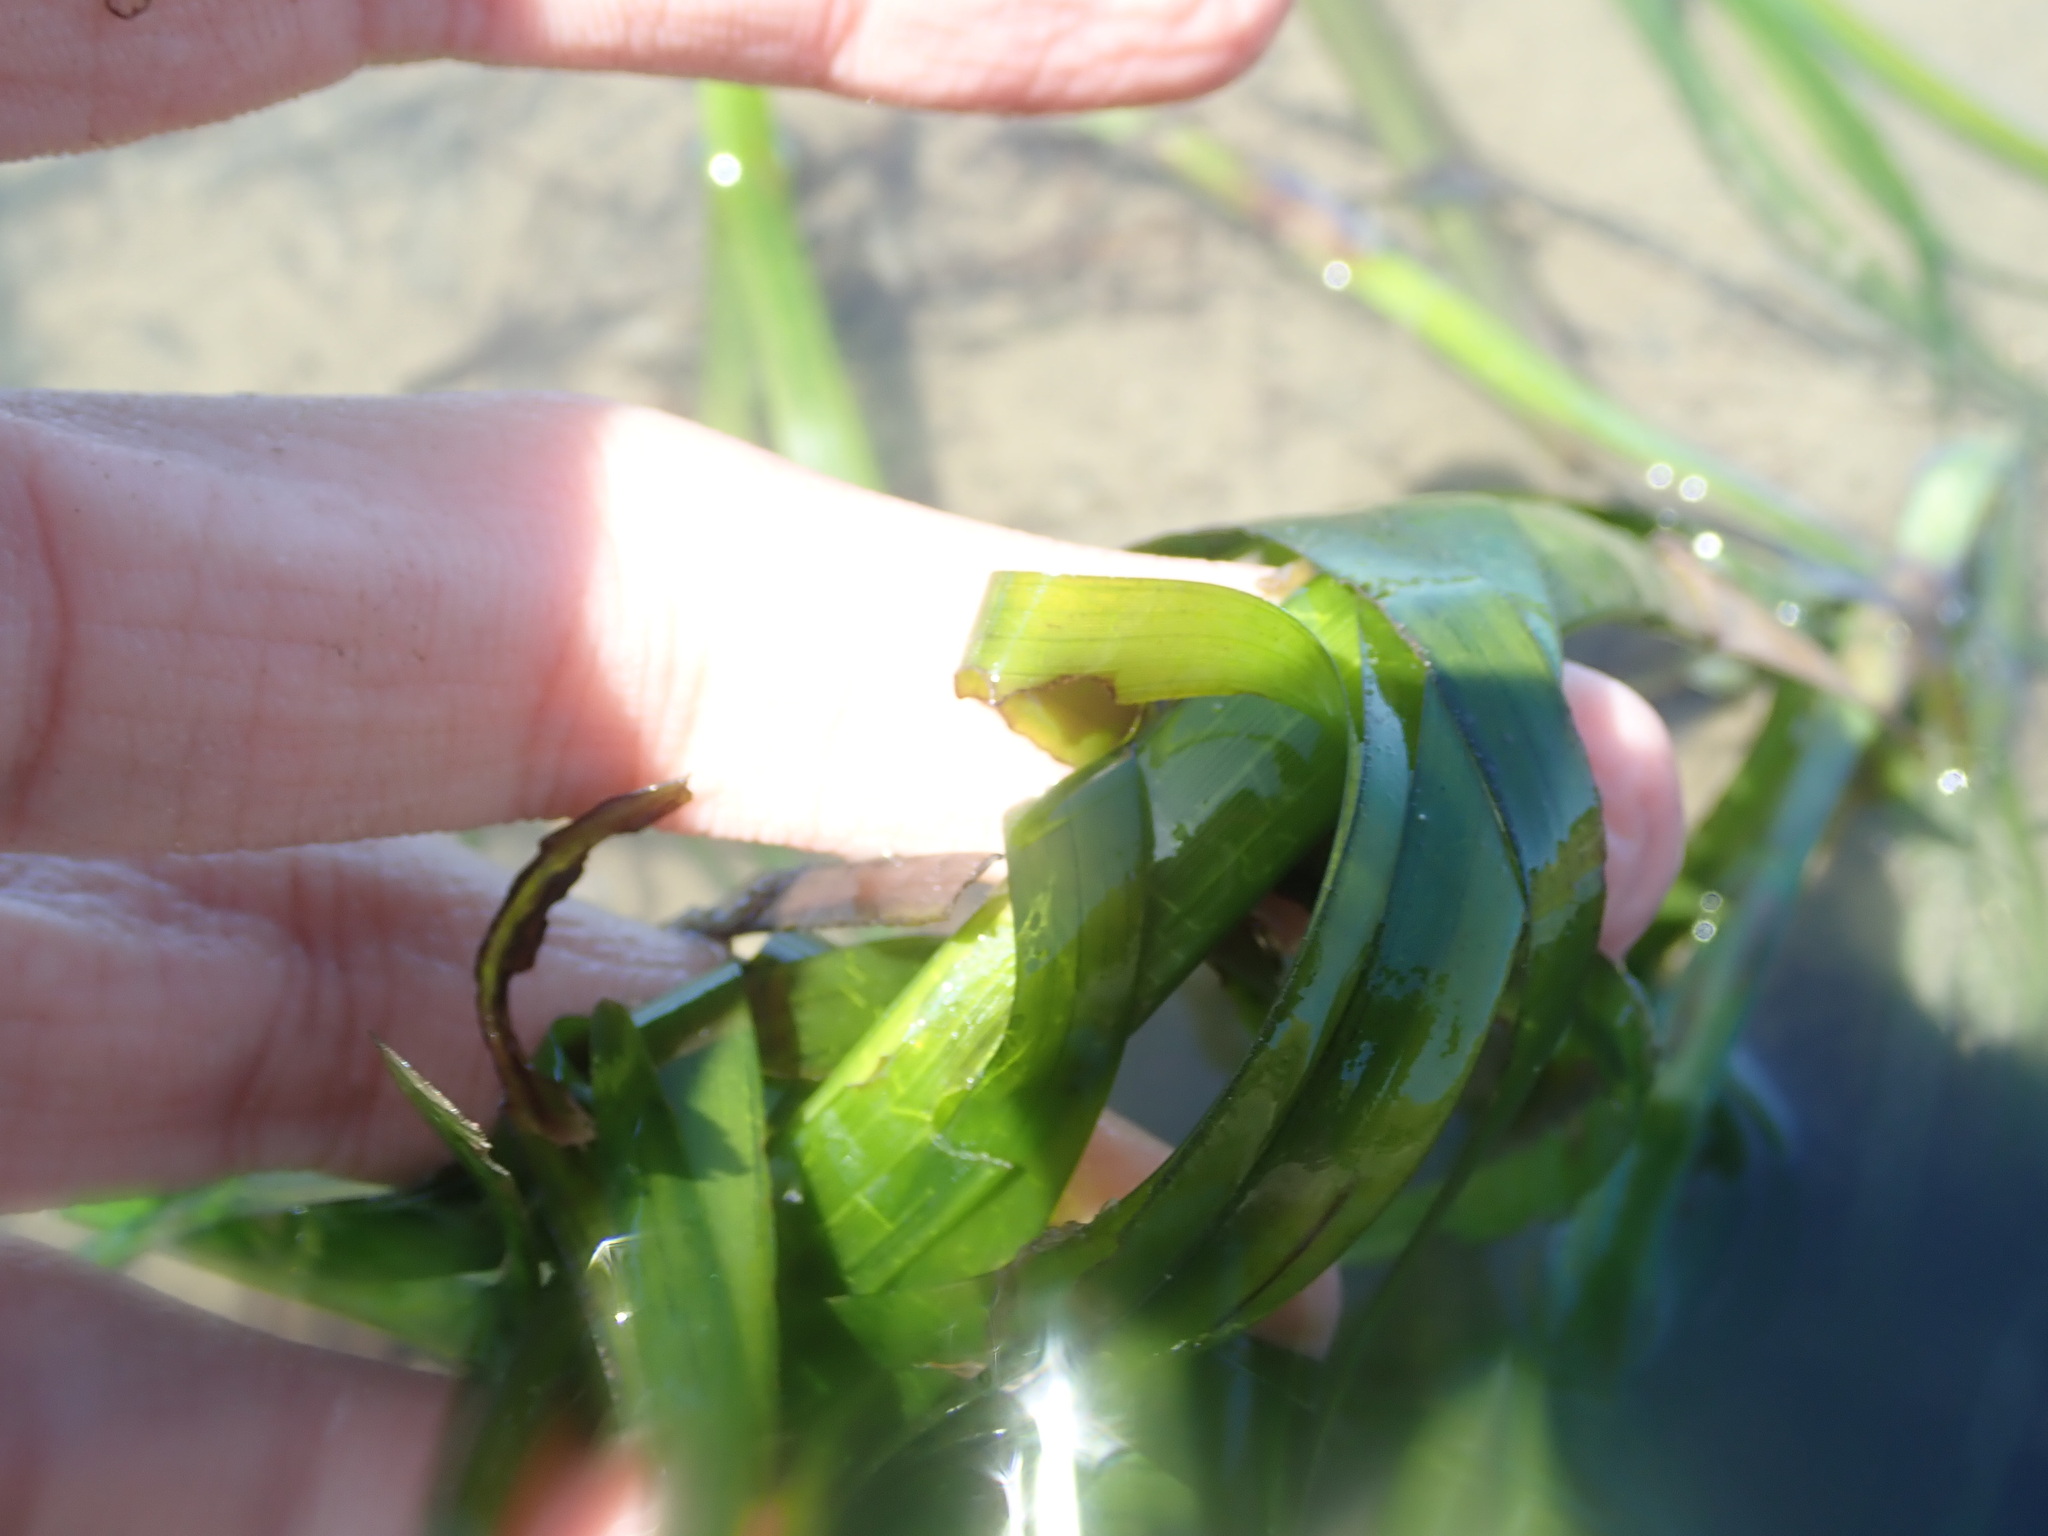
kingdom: Plantae
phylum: Tracheophyta
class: Liliopsida
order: Alismatales
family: Zosteraceae
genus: Zostera
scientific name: Zostera marina
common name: Eelgrass
